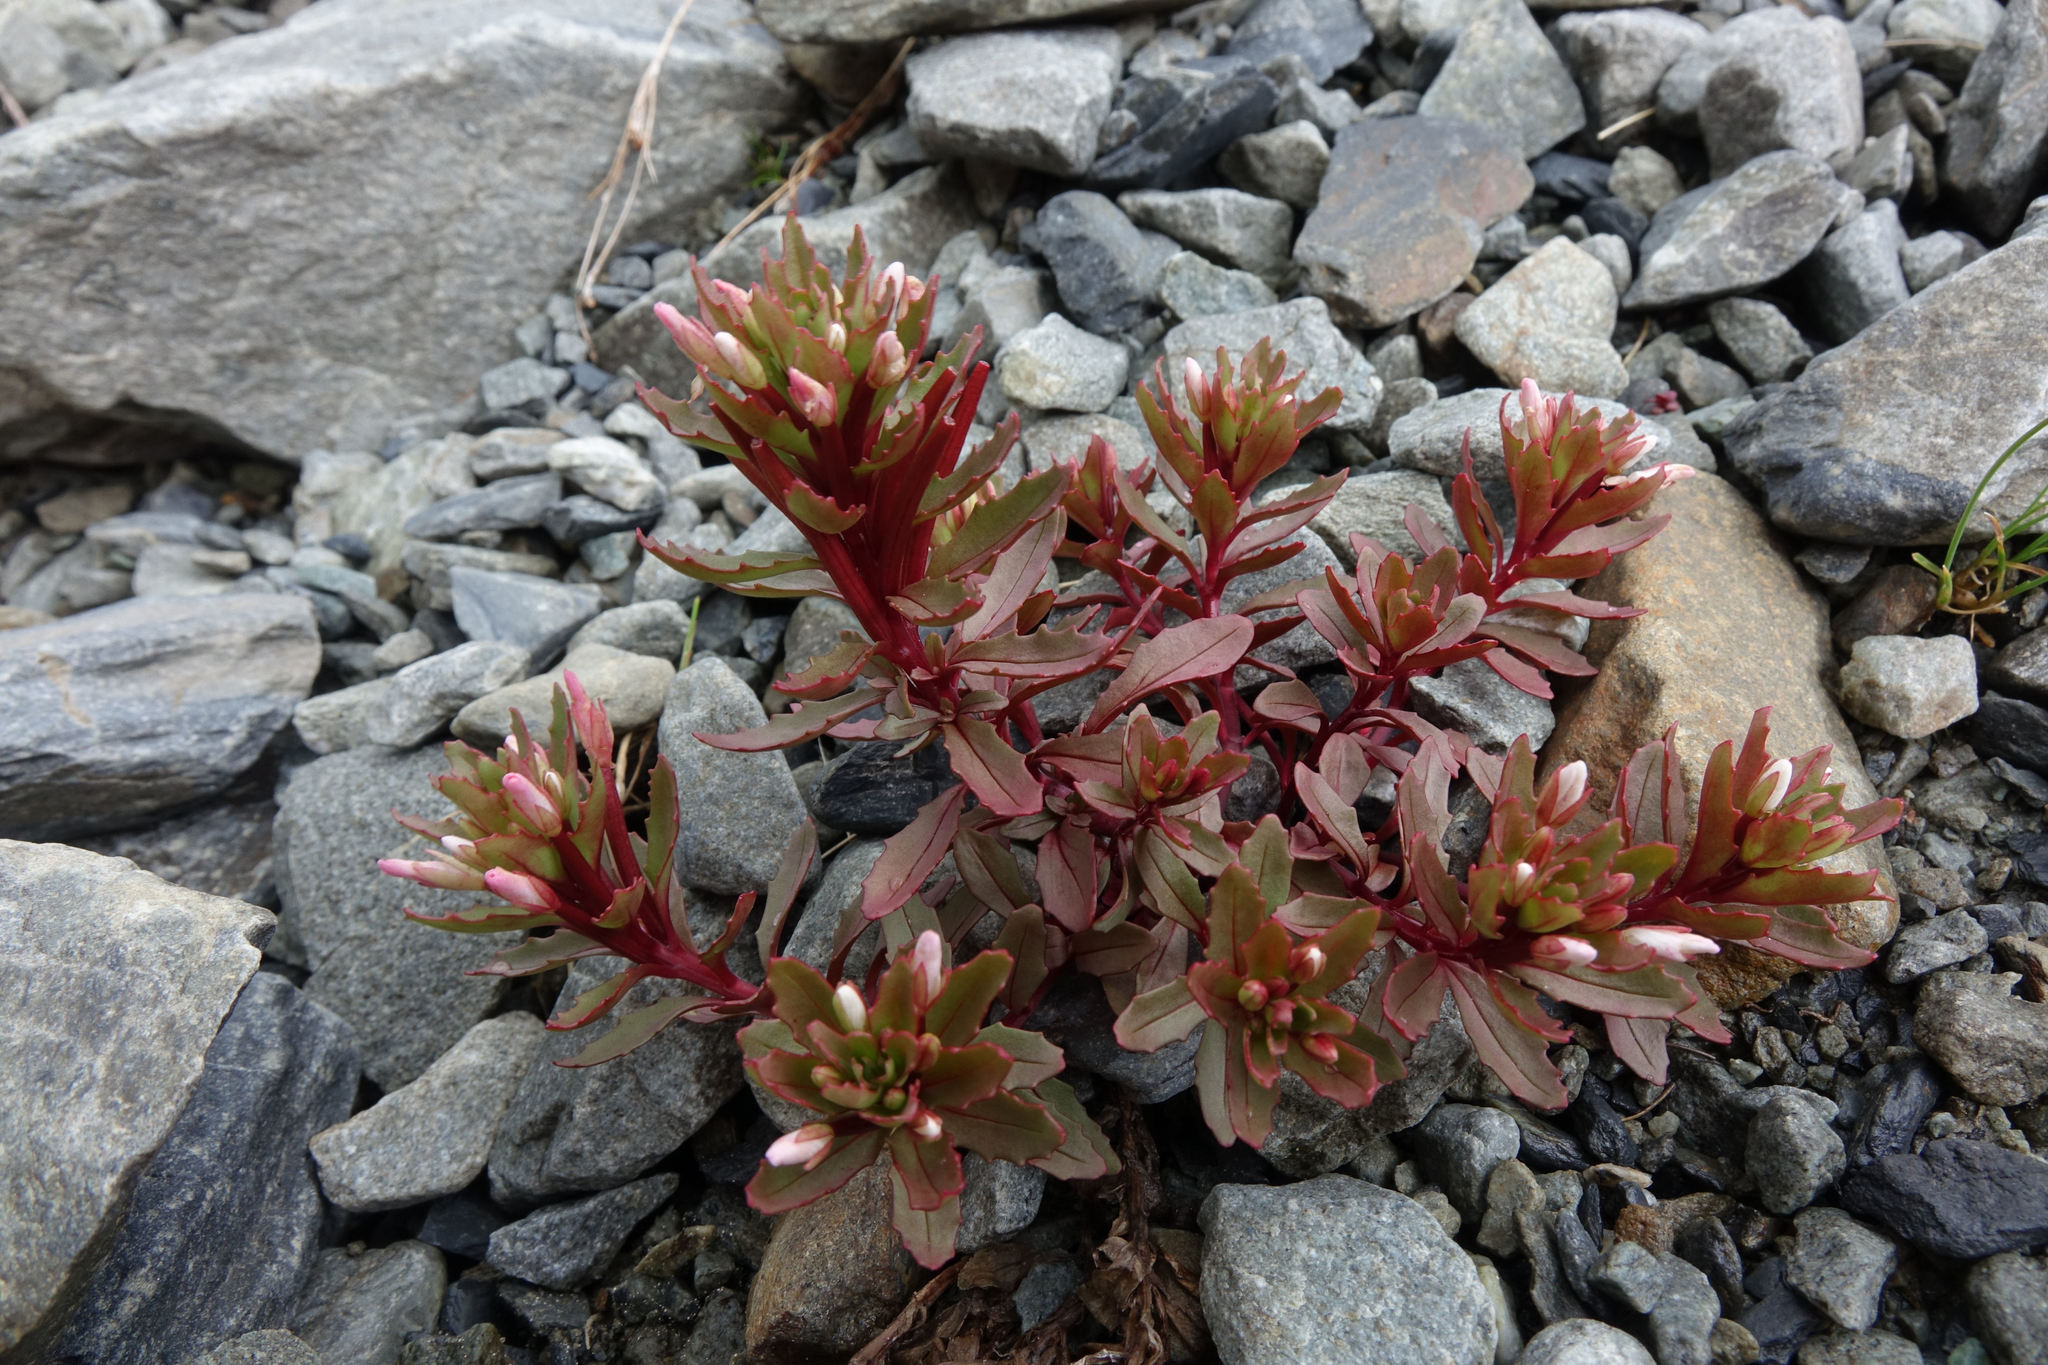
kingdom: Plantae
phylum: Tracheophyta
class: Magnoliopsida
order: Myrtales
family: Onagraceae
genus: Epilobium
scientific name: Epilobium pycnostachyum
